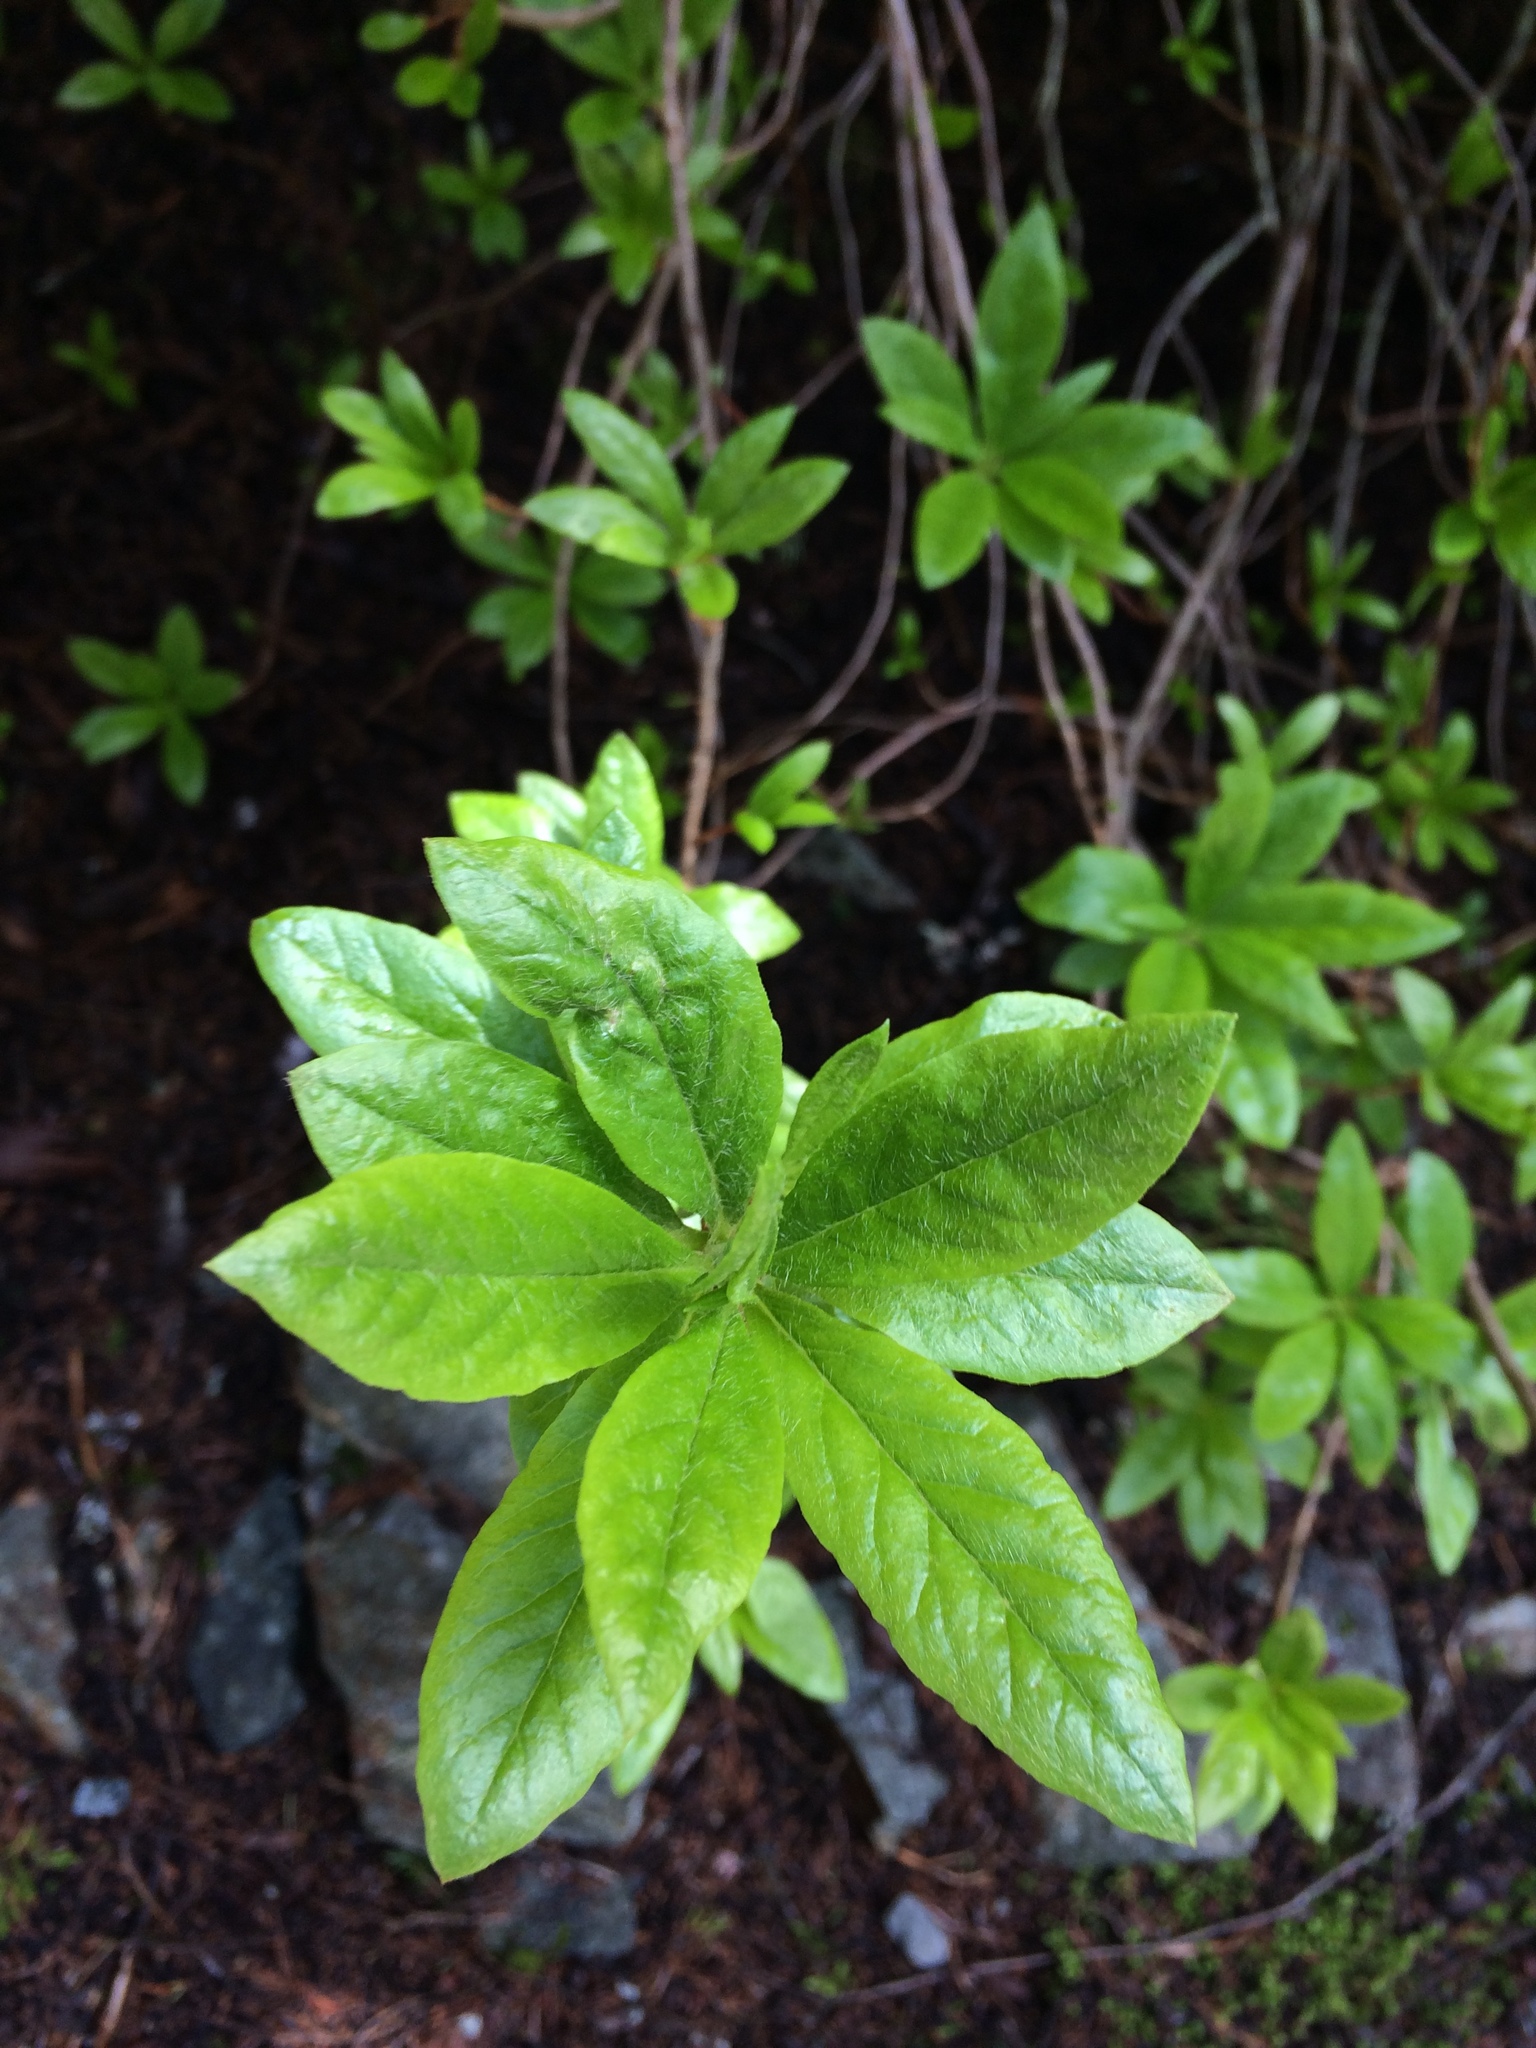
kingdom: Plantae
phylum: Tracheophyta
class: Magnoliopsida
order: Ericales
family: Ericaceae
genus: Rhododendron
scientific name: Rhododendron menziesii
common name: Pacific menziesia
